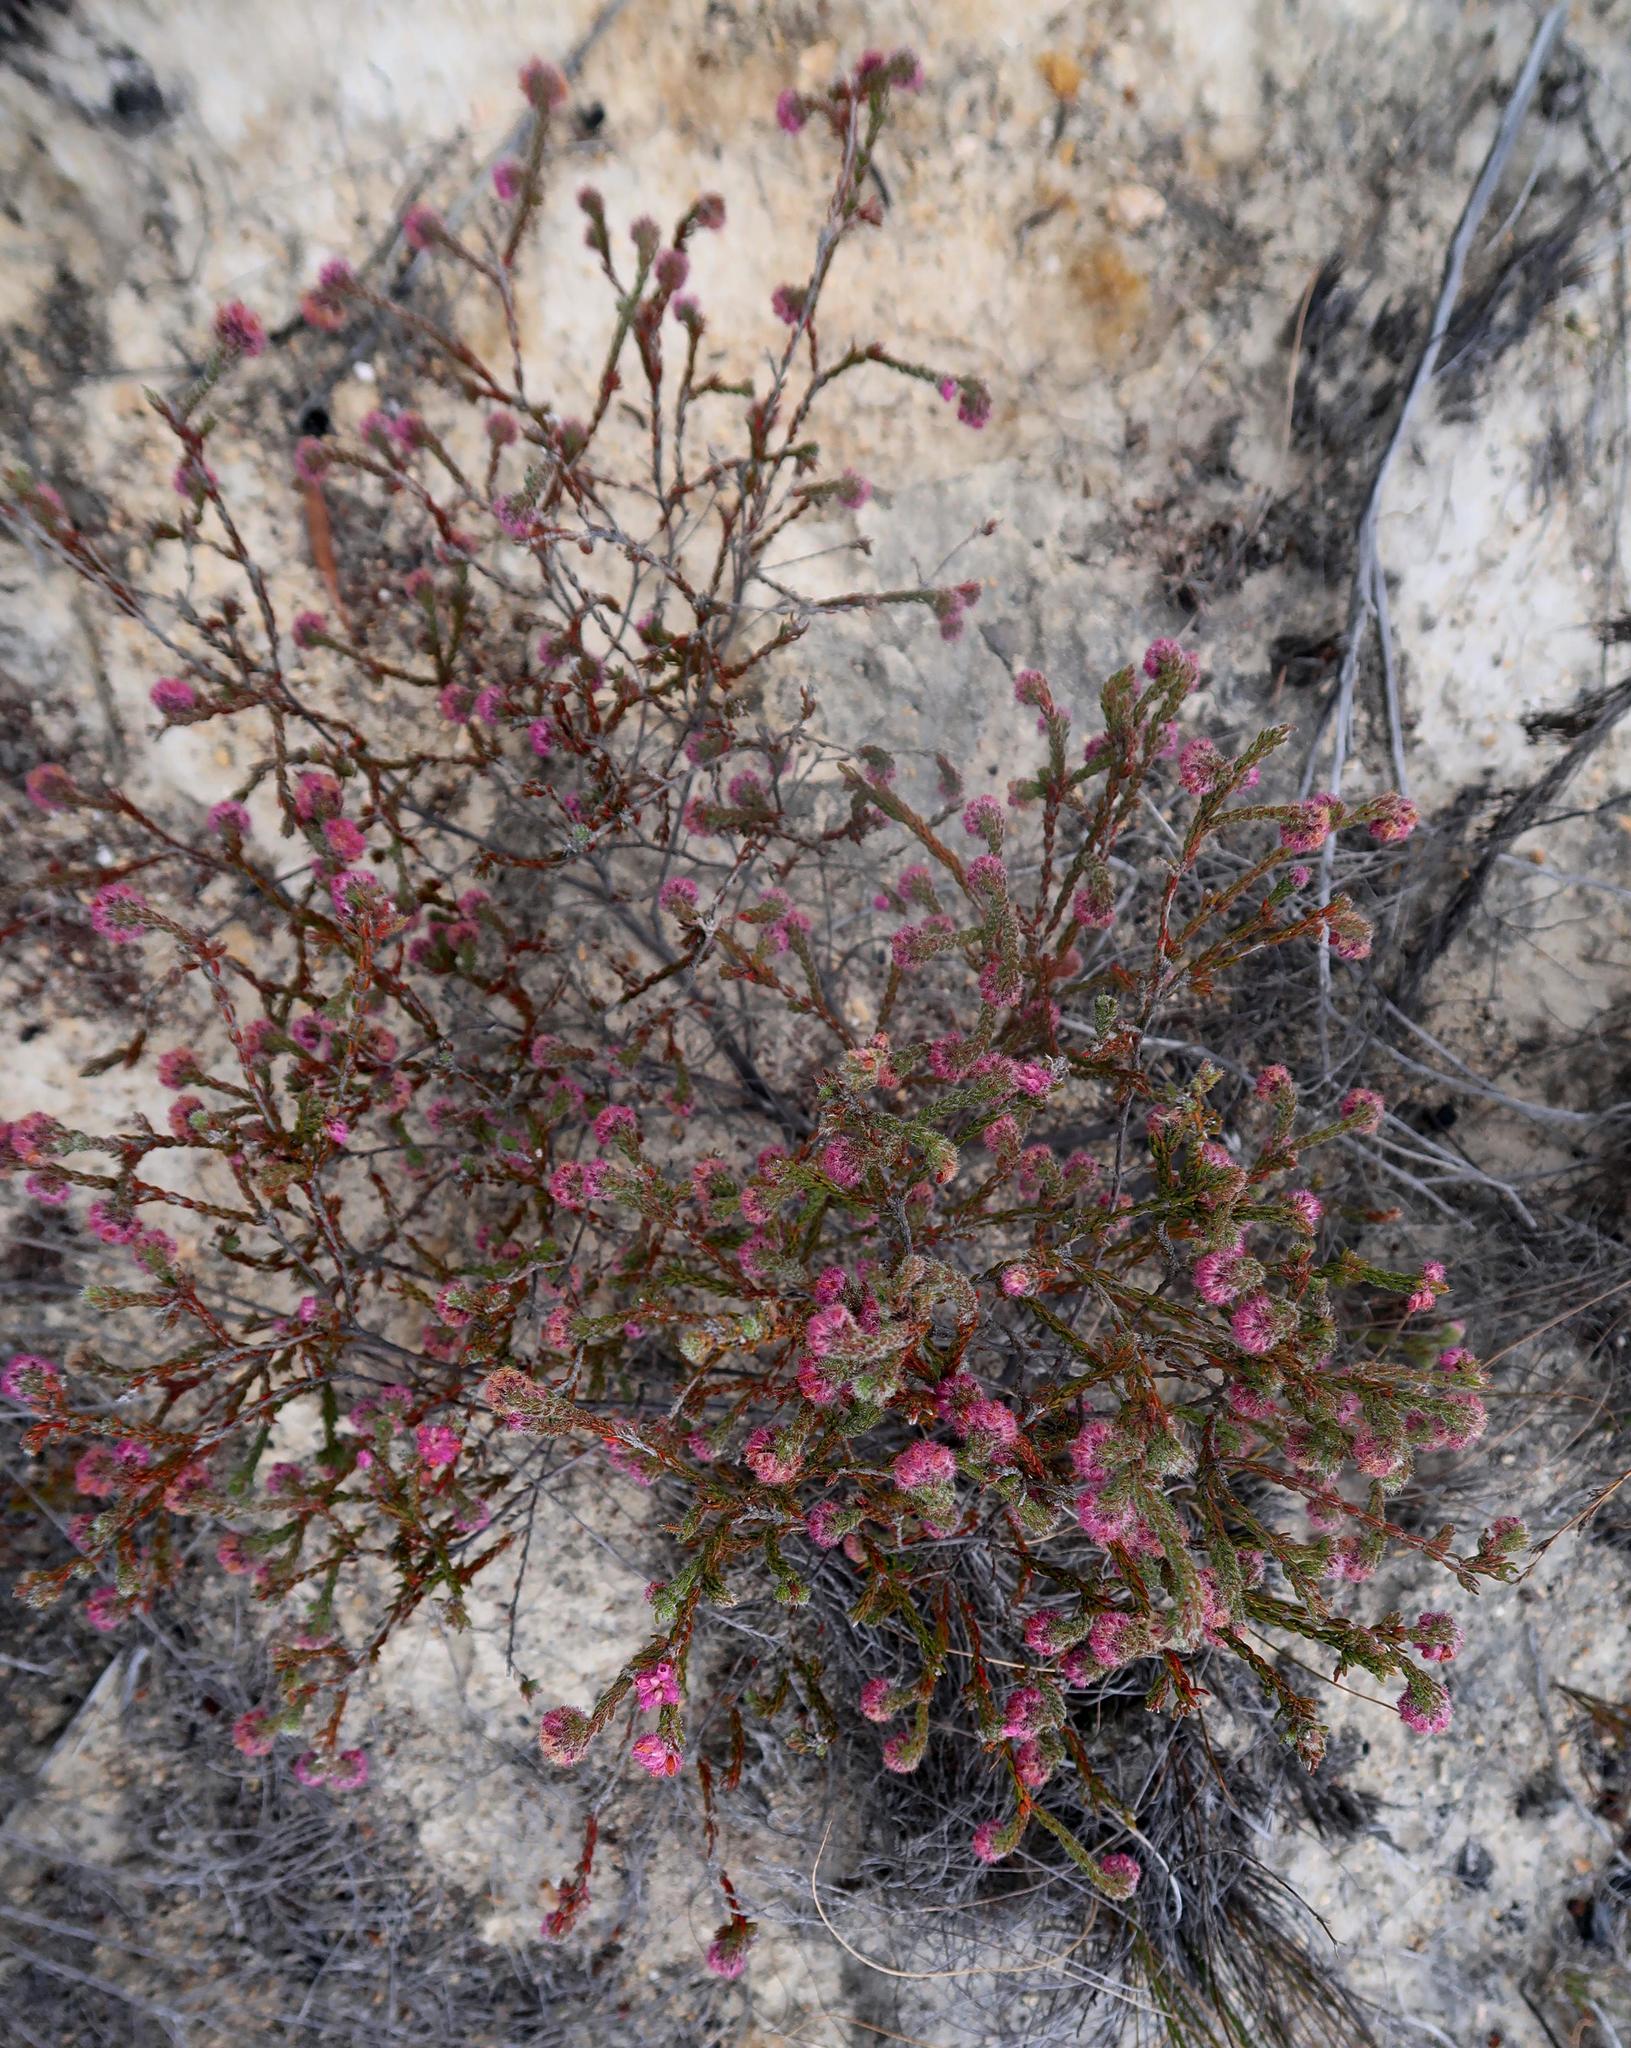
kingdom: Plantae
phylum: Tracheophyta
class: Magnoliopsida
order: Ericales
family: Ericaceae
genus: Erica
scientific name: Erica solandra
